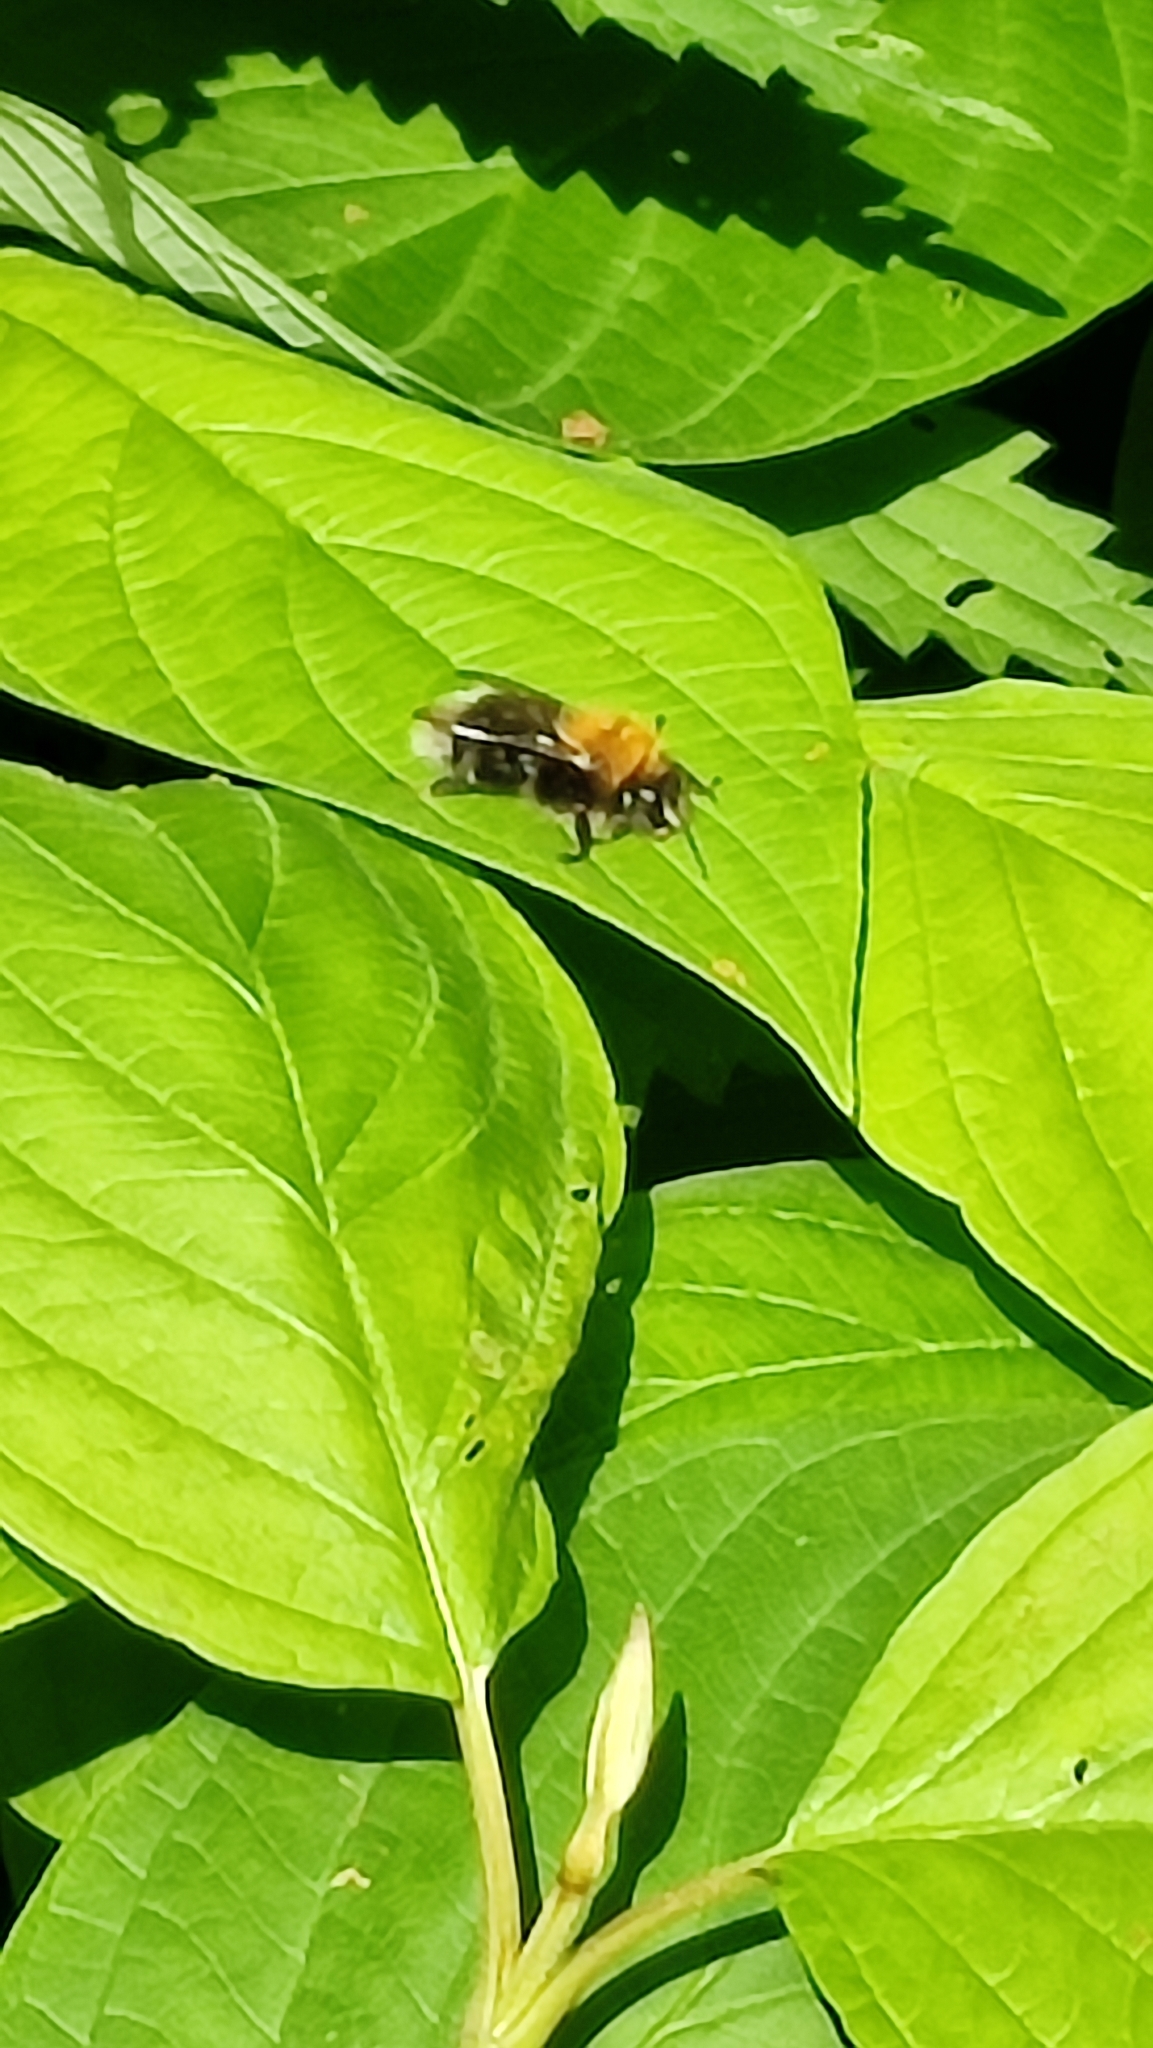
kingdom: Animalia
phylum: Arthropoda
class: Insecta
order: Hymenoptera
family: Apidae
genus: Bombus
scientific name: Bombus hypnorum
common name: New garden bumblebee
